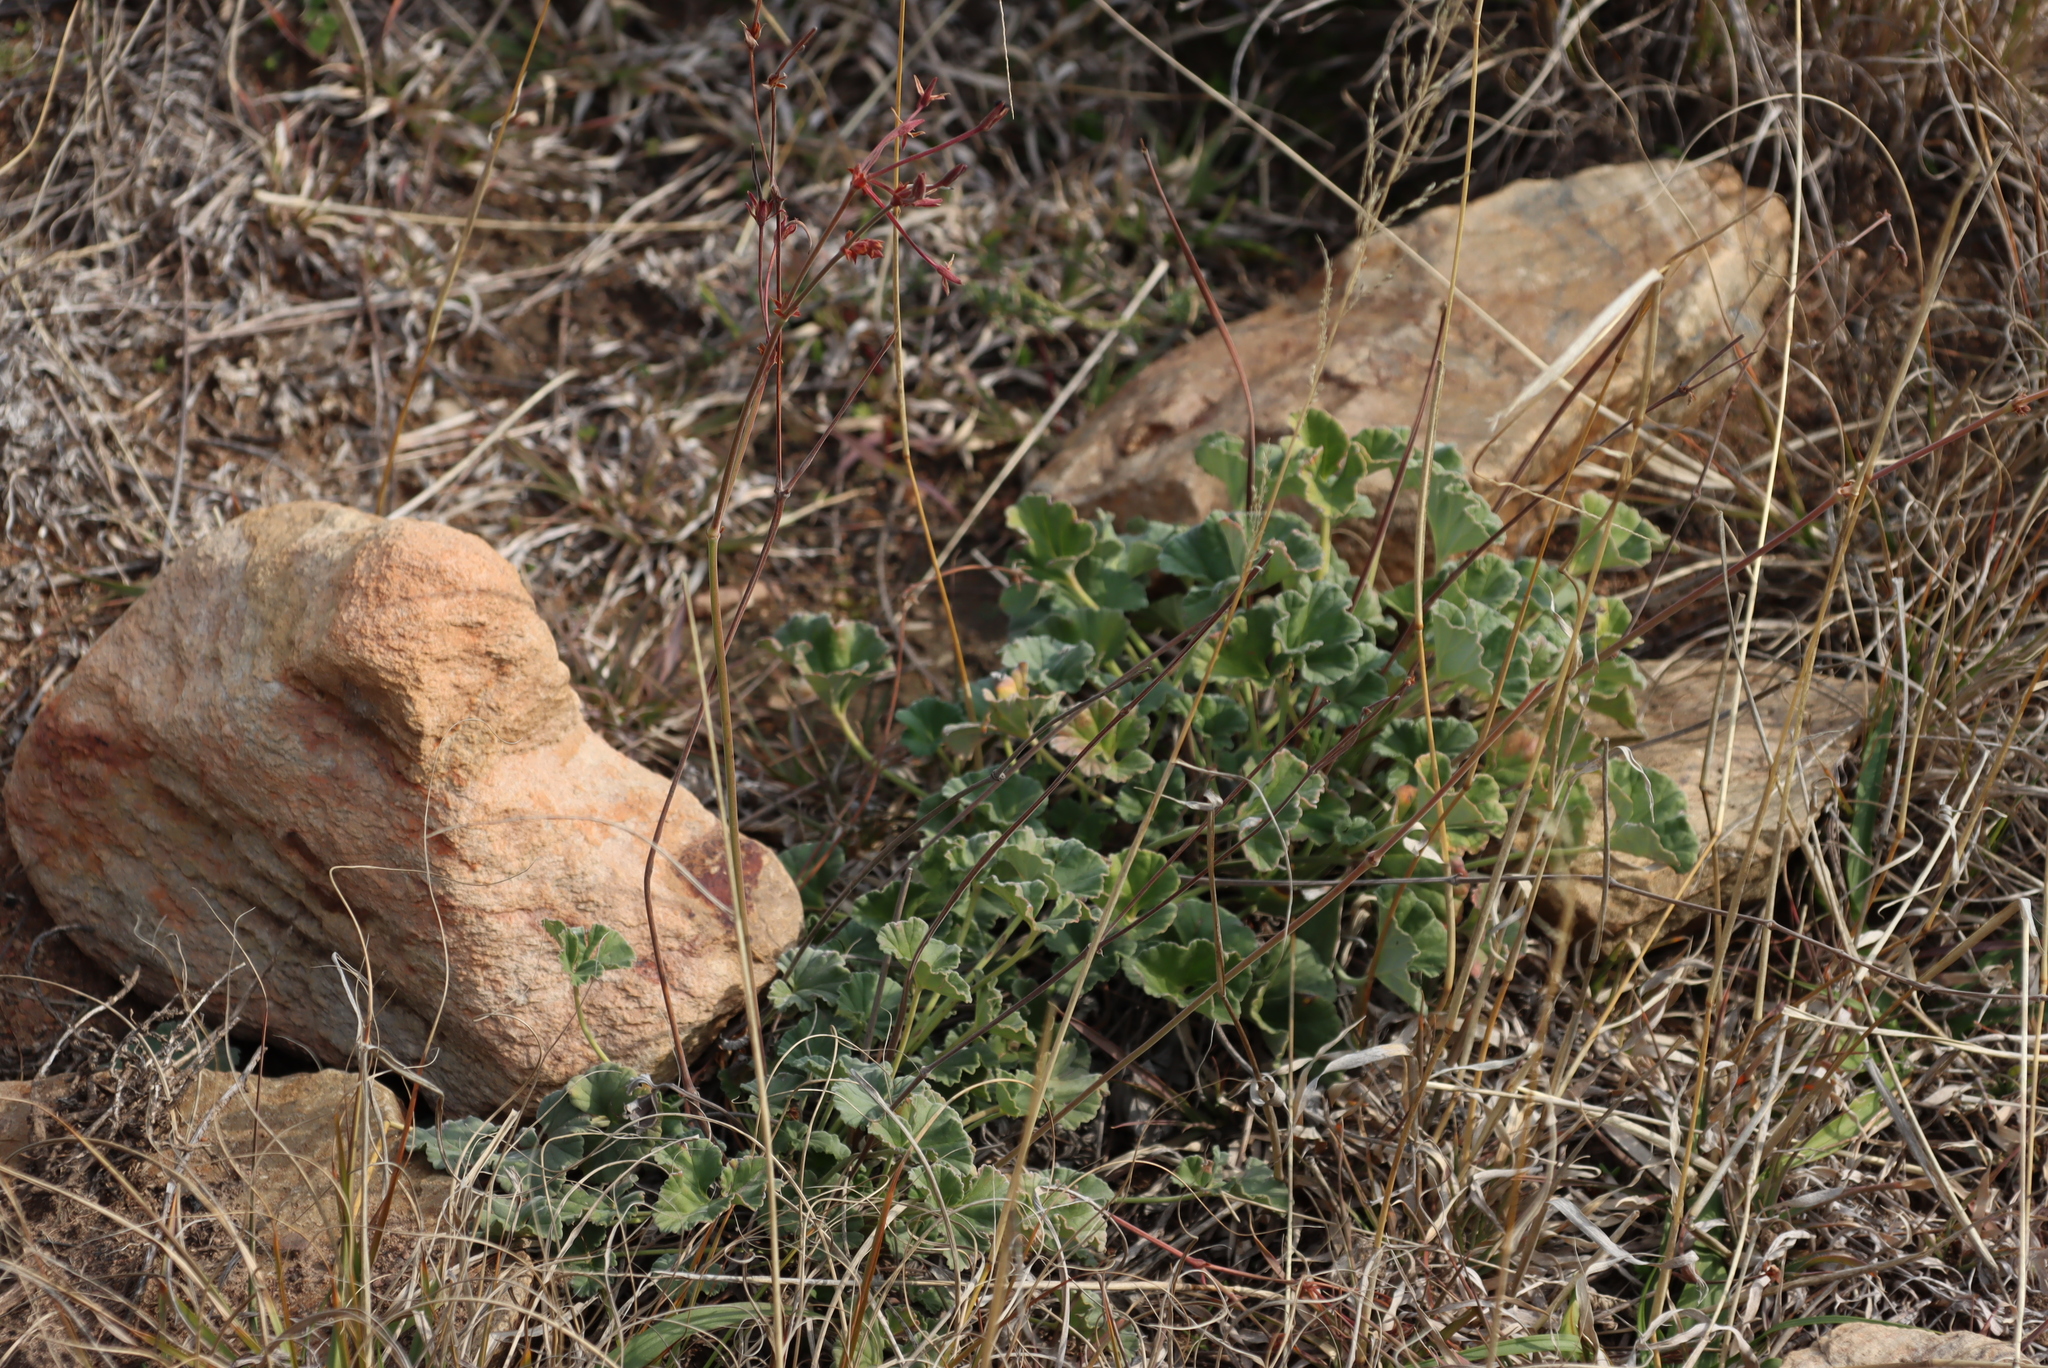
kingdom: Plantae
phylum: Tracheophyta
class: Magnoliopsida
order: Geraniales
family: Geraniaceae
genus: Pelargonium
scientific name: Pelargonium sidoides
